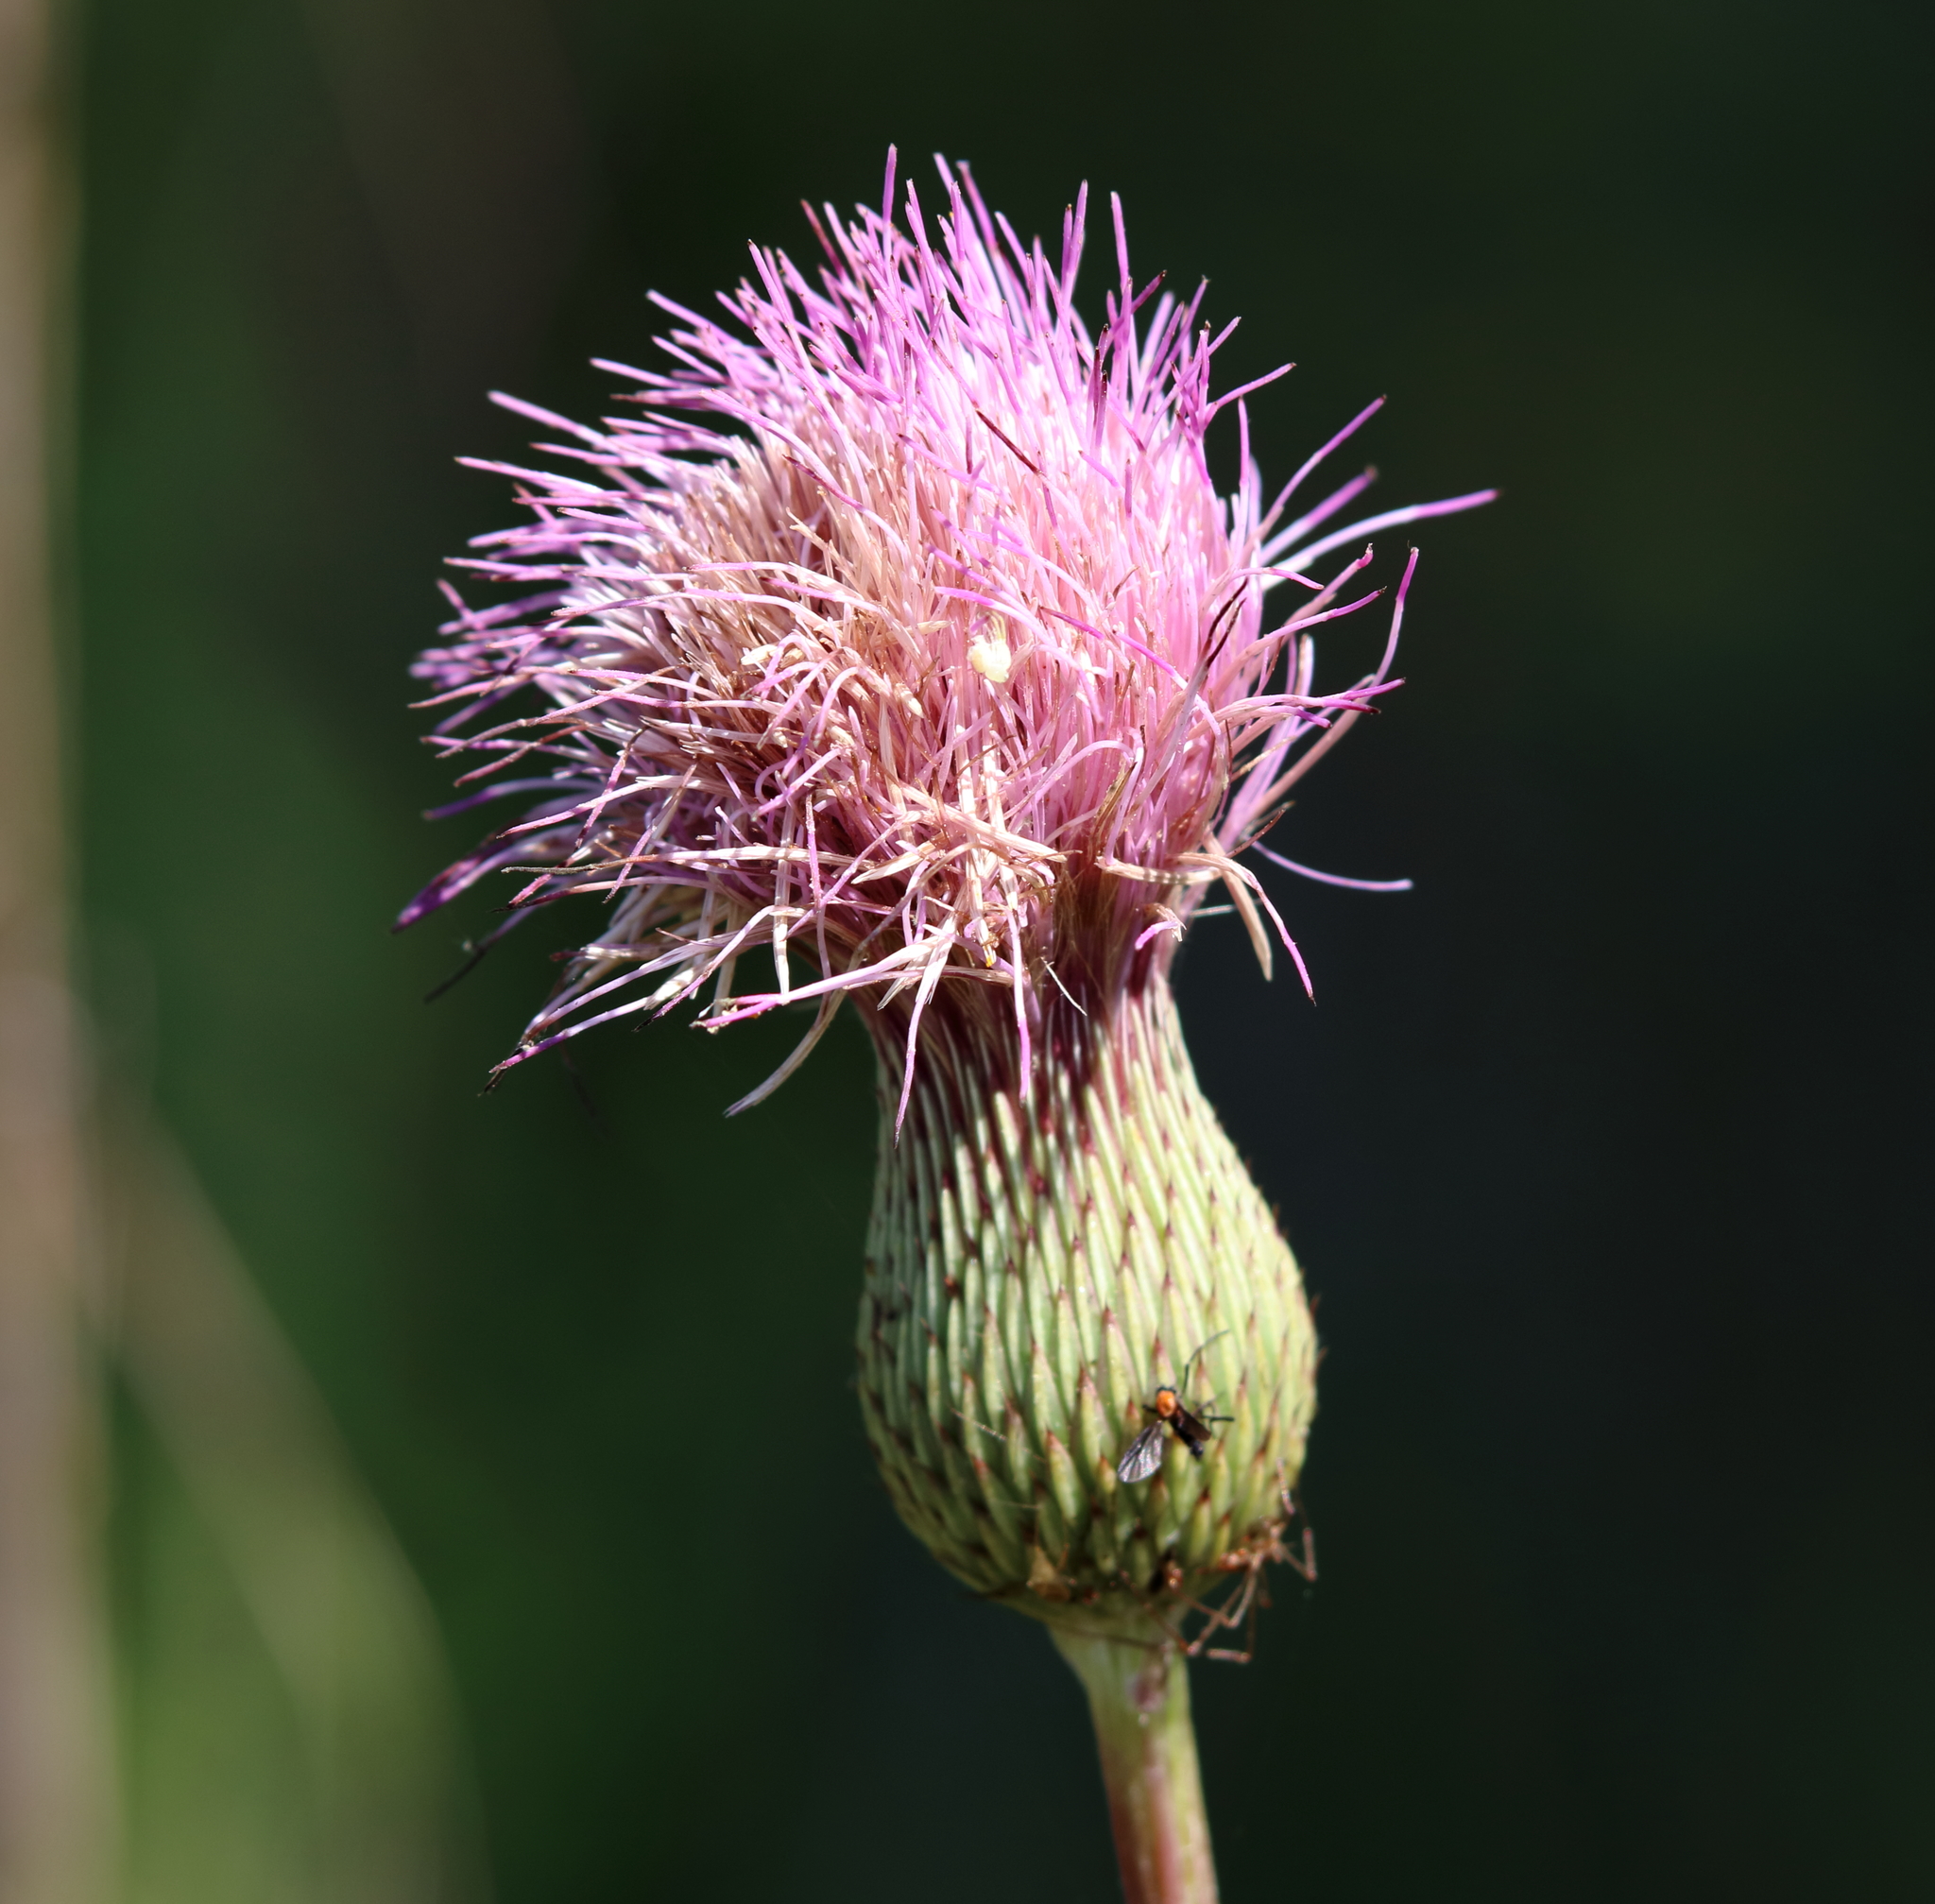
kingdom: Plantae
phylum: Tracheophyta
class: Magnoliopsida
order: Asterales
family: Asteraceae
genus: Cirsium
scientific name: Cirsium lecontei
